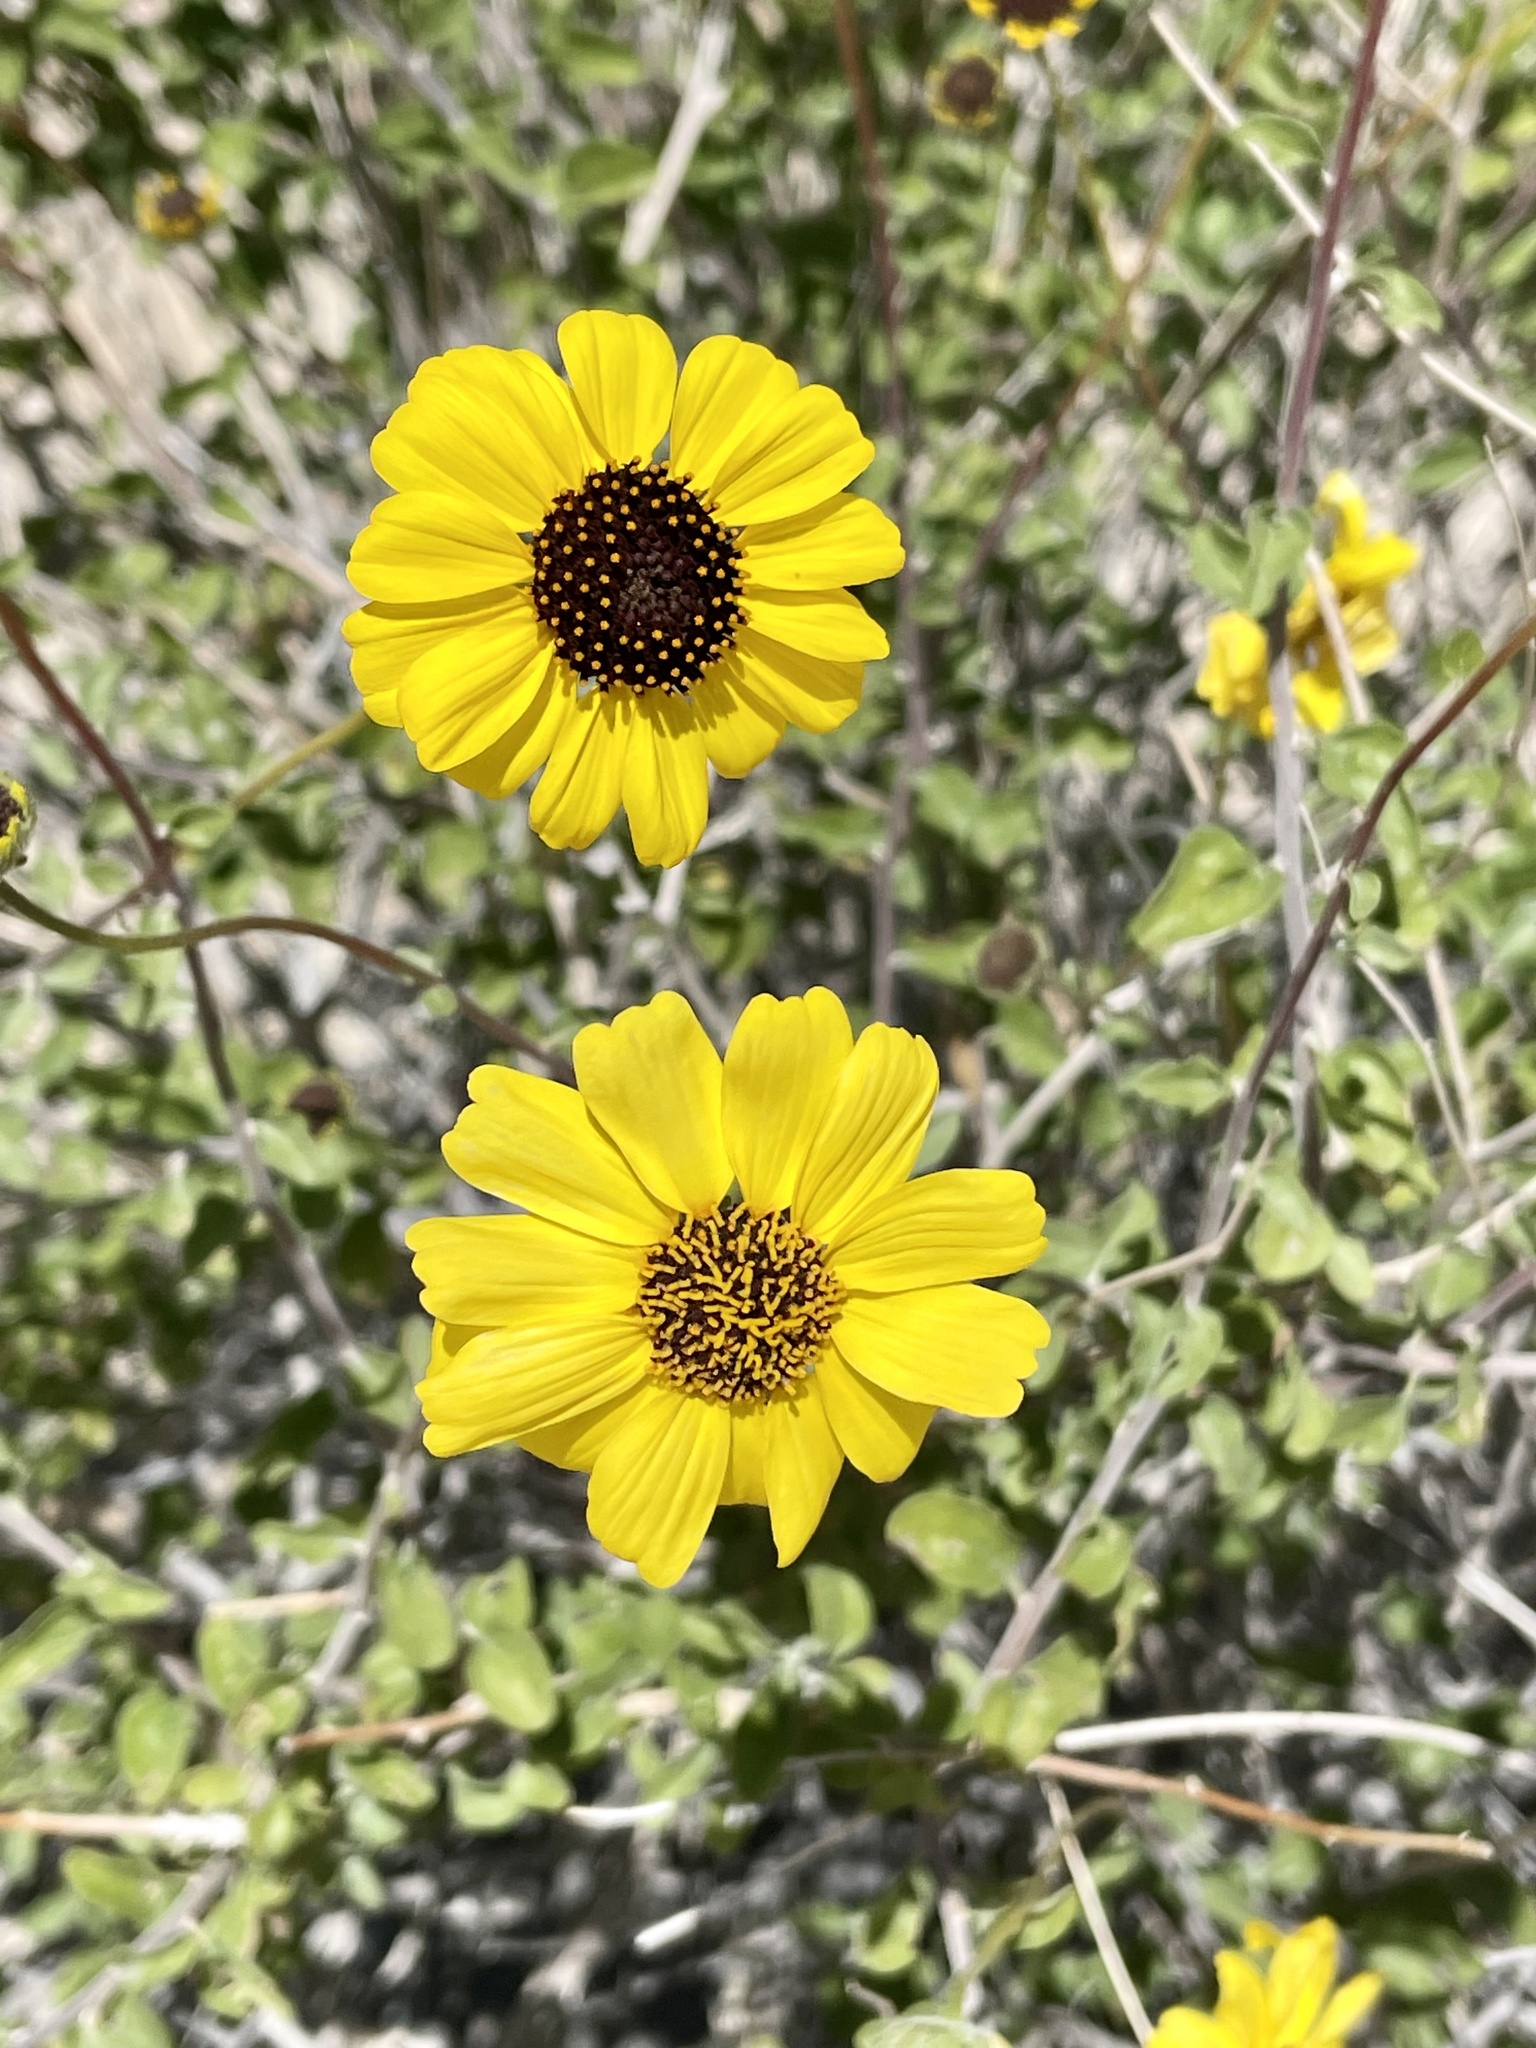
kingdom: Plantae
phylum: Tracheophyta
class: Magnoliopsida
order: Asterales
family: Asteraceae
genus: Encelia
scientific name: Encelia asperifolia
